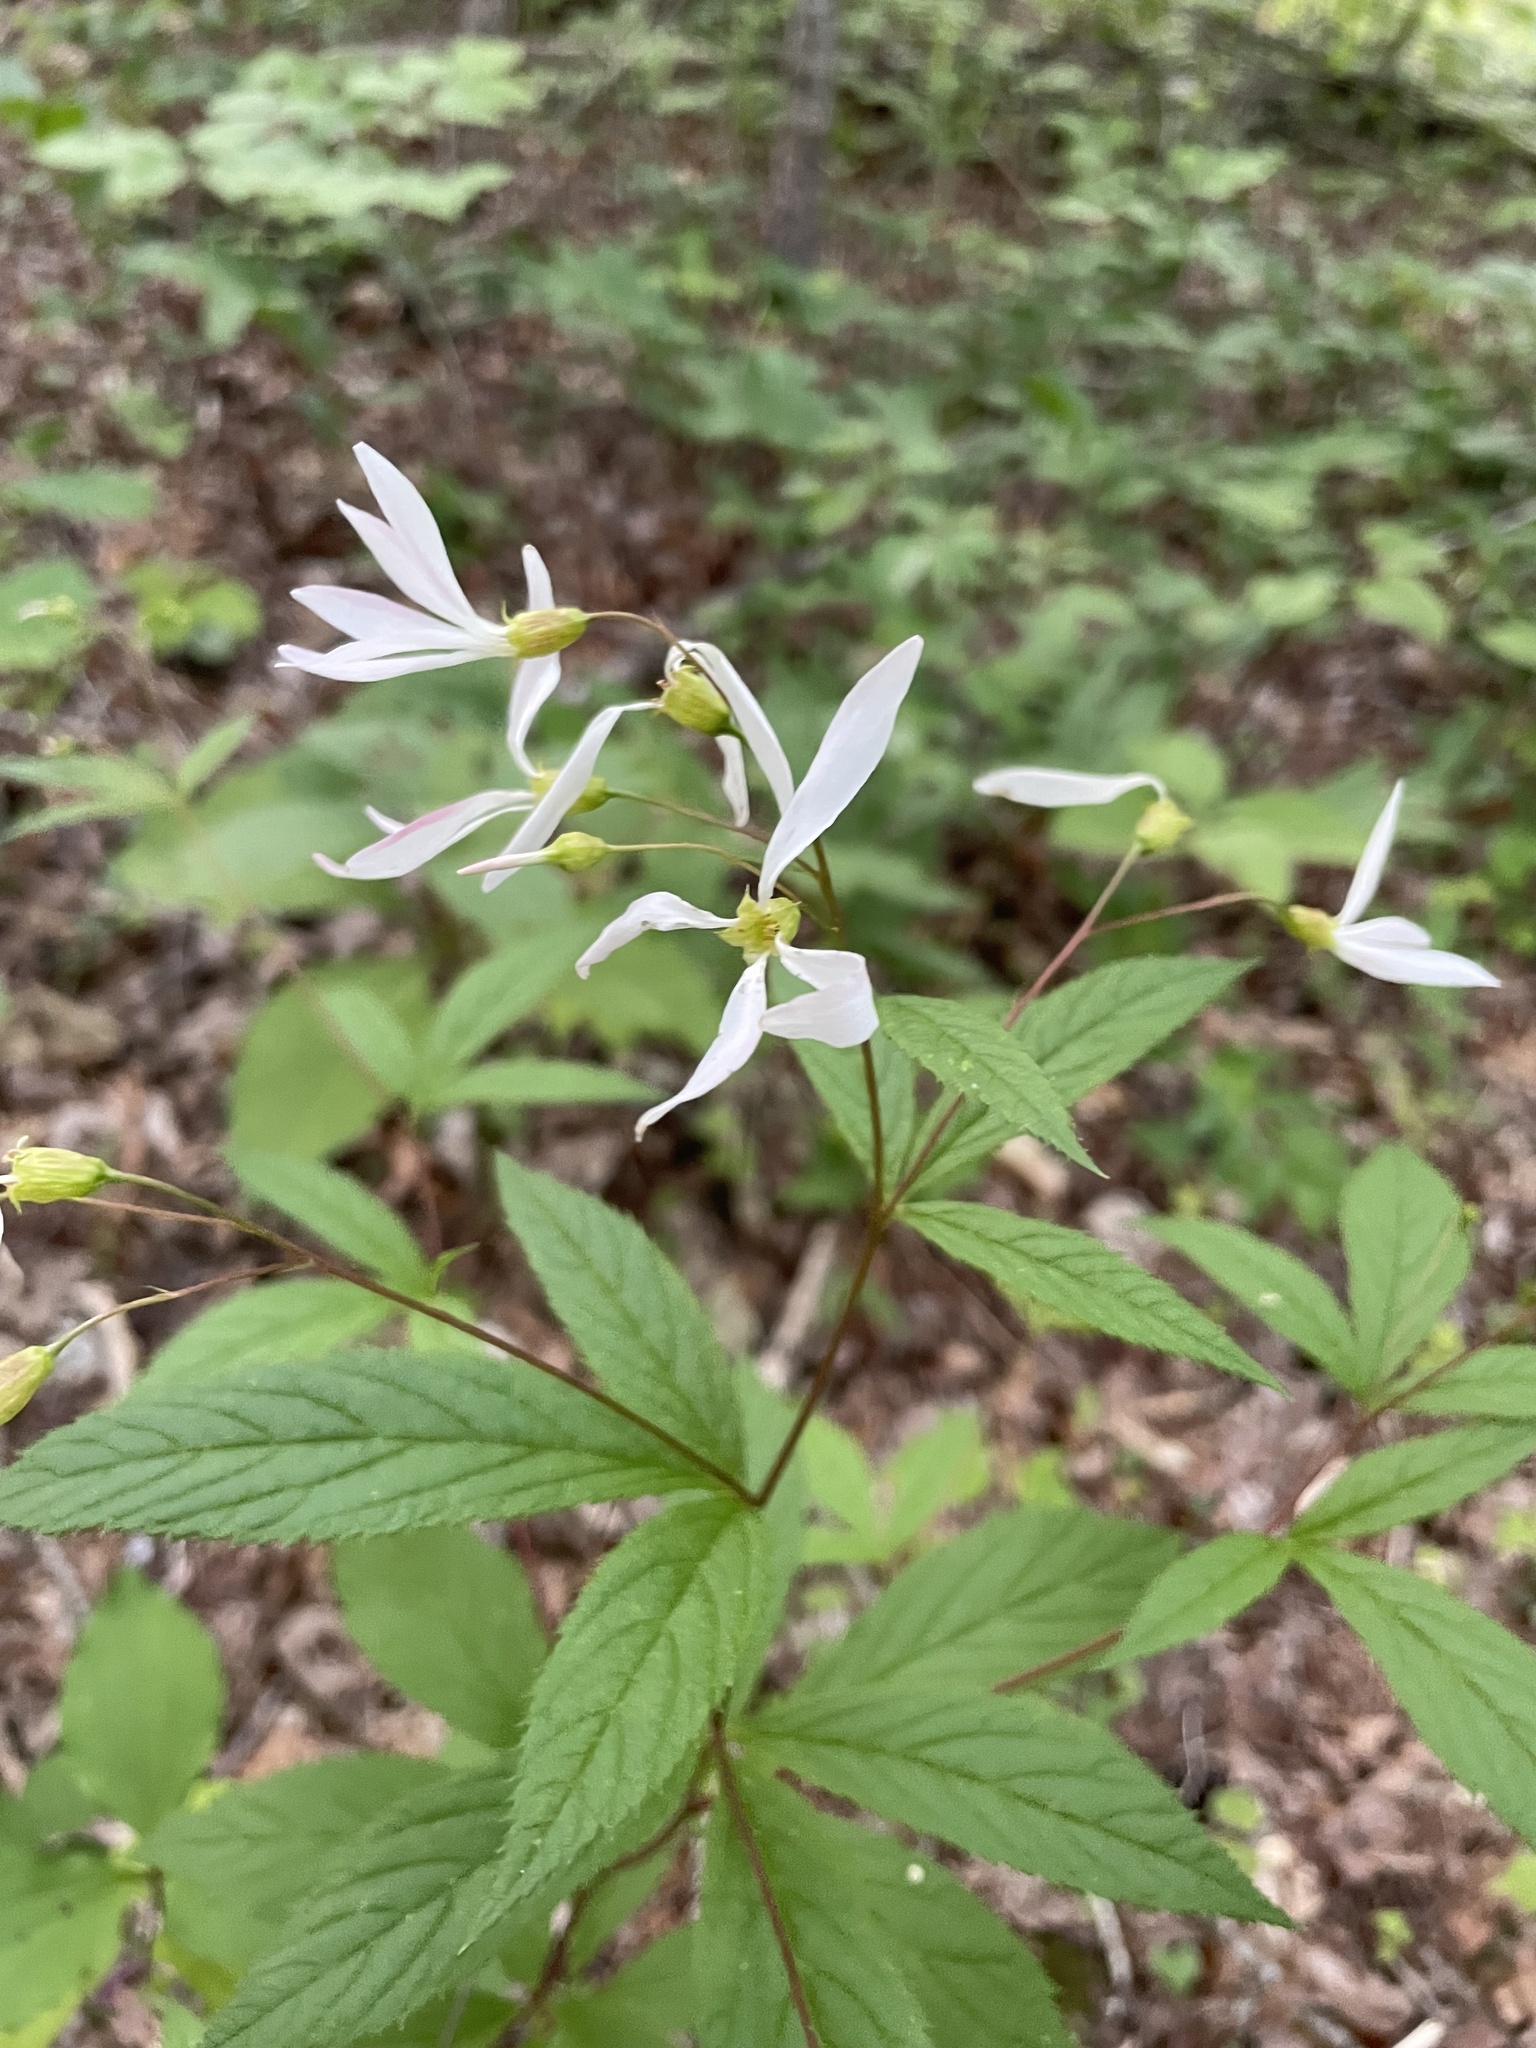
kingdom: Plantae
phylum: Tracheophyta
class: Magnoliopsida
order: Rosales
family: Rosaceae
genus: Gillenia
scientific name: Gillenia trifoliata
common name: Bowman's-root
